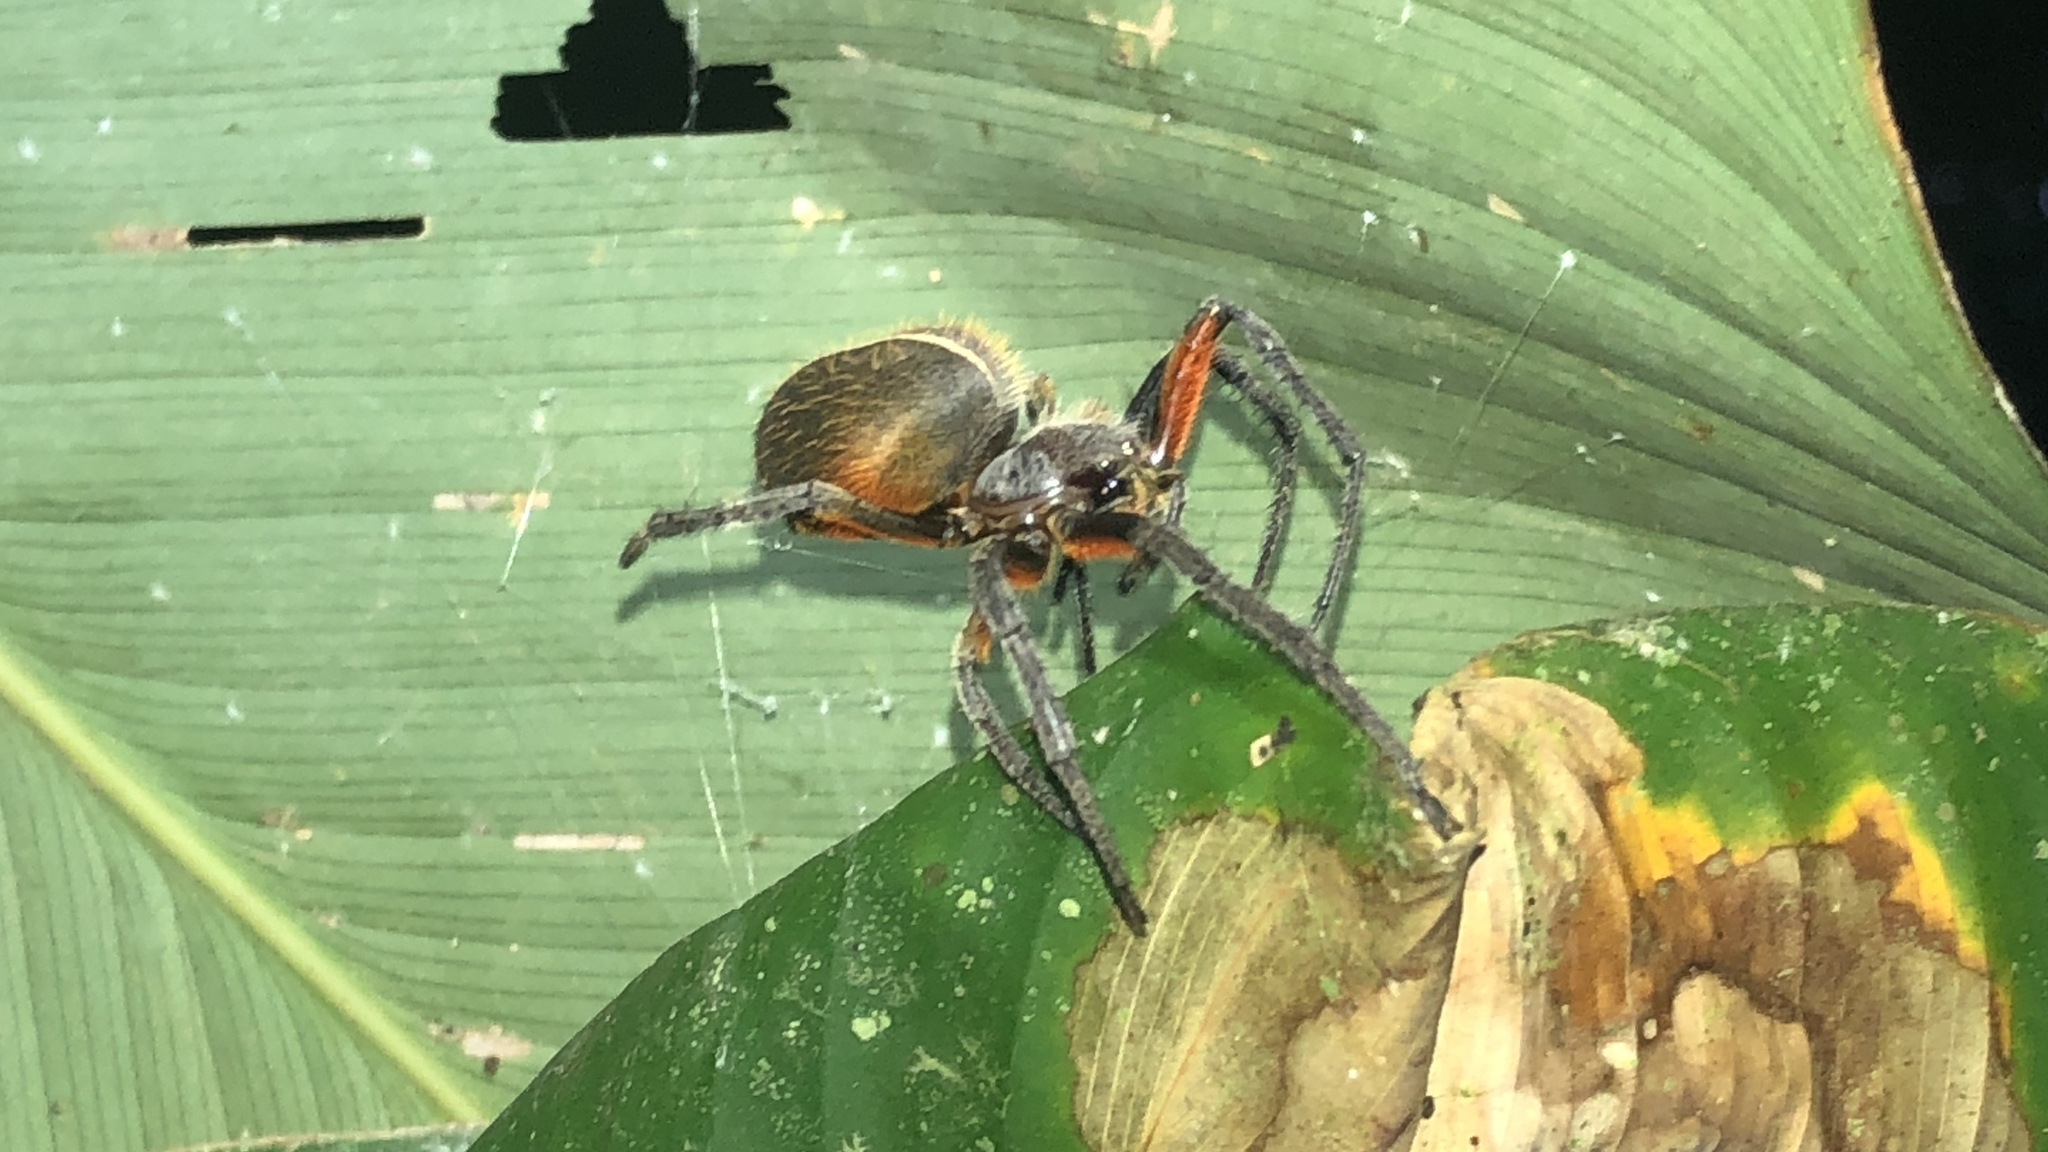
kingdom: Animalia
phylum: Arthropoda
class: Arachnida
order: Araneae
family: Araneidae
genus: Eriophora
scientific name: Eriophora fuliginea
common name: Orb weavers
